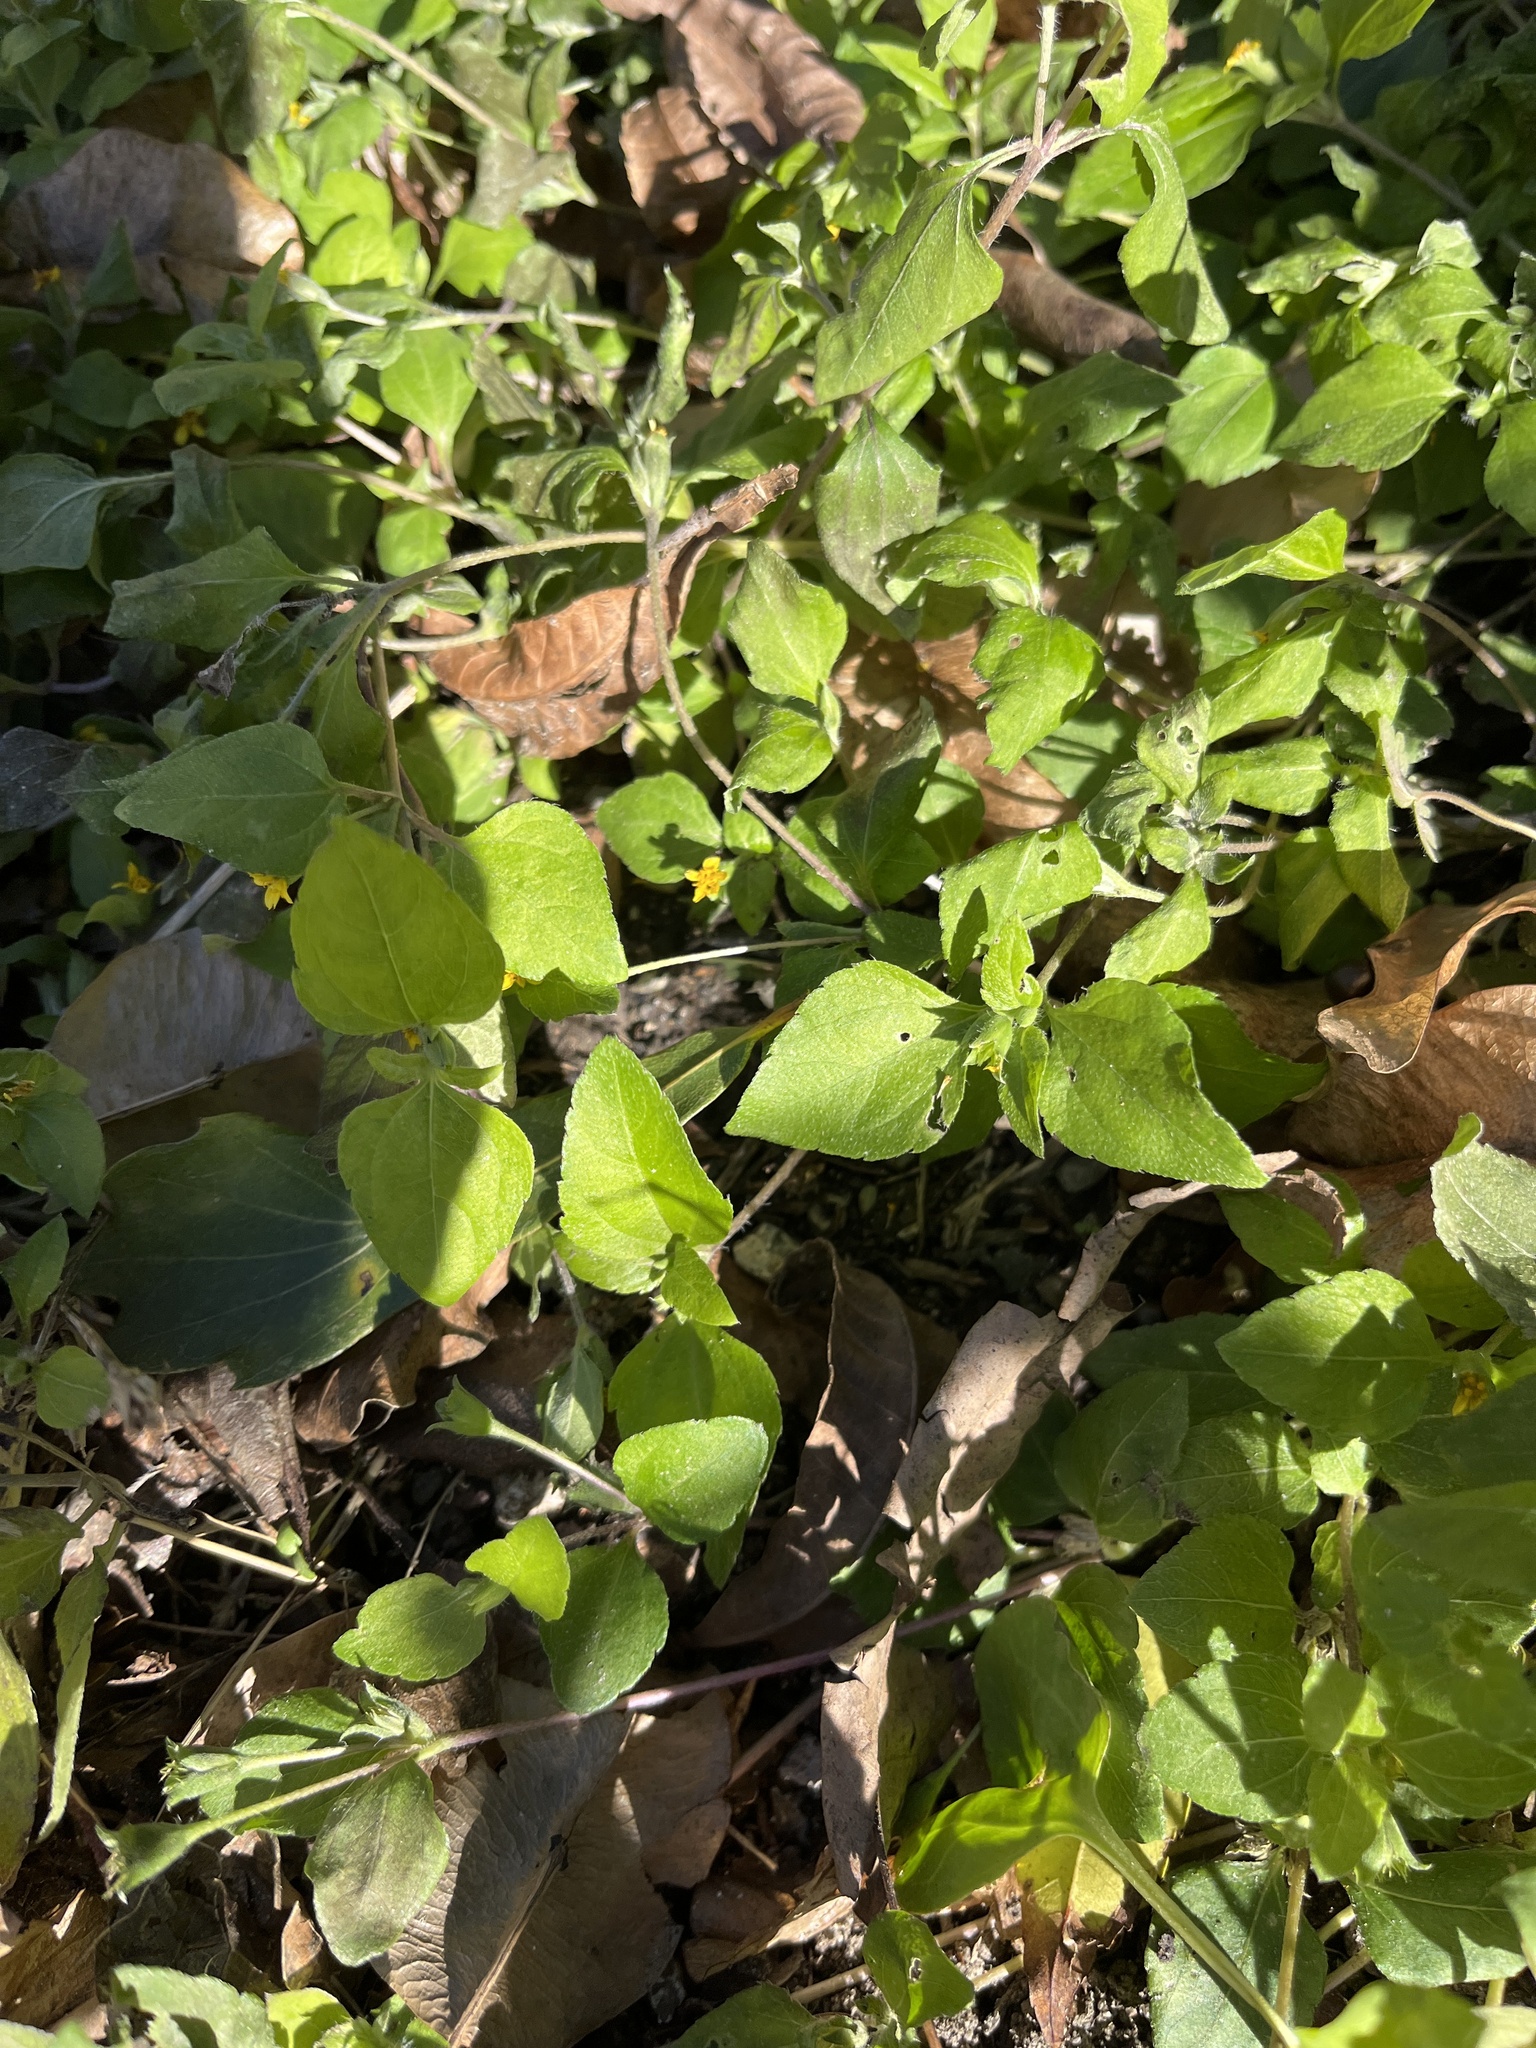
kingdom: Plantae
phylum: Tracheophyta
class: Magnoliopsida
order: Asterales
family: Asteraceae
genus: Calyptocarpus
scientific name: Calyptocarpus vialis
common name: Straggler daisy
